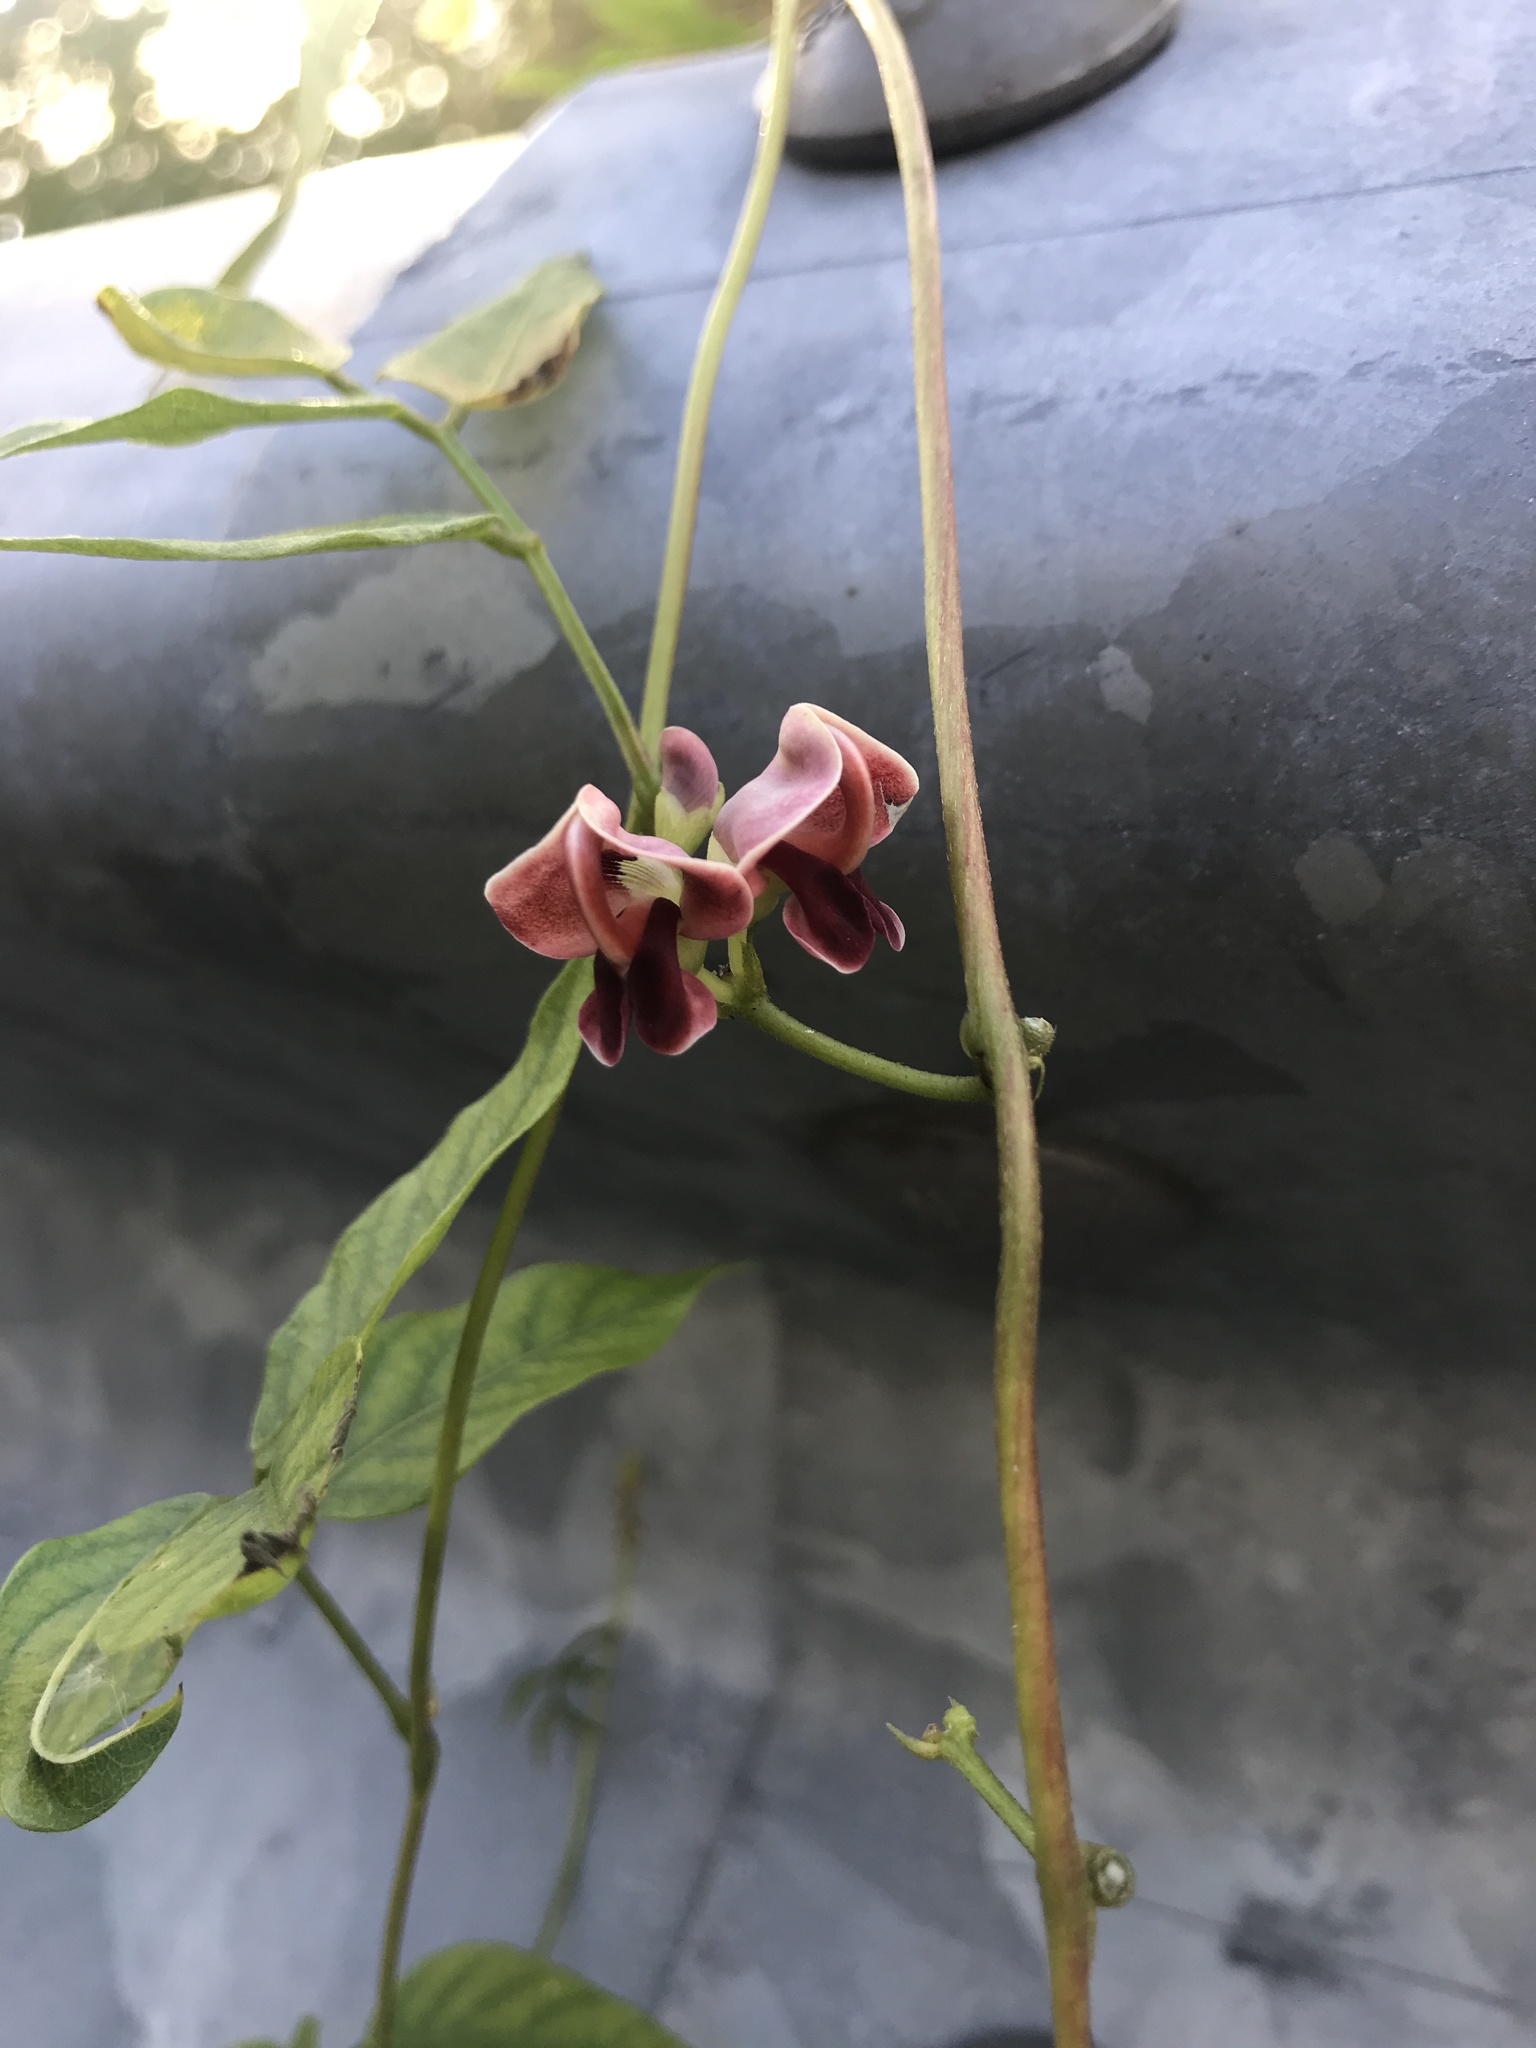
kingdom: Plantae
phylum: Tracheophyta
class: Magnoliopsida
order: Fabales
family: Fabaceae
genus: Apios
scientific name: Apios americana
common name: American potato-bean
